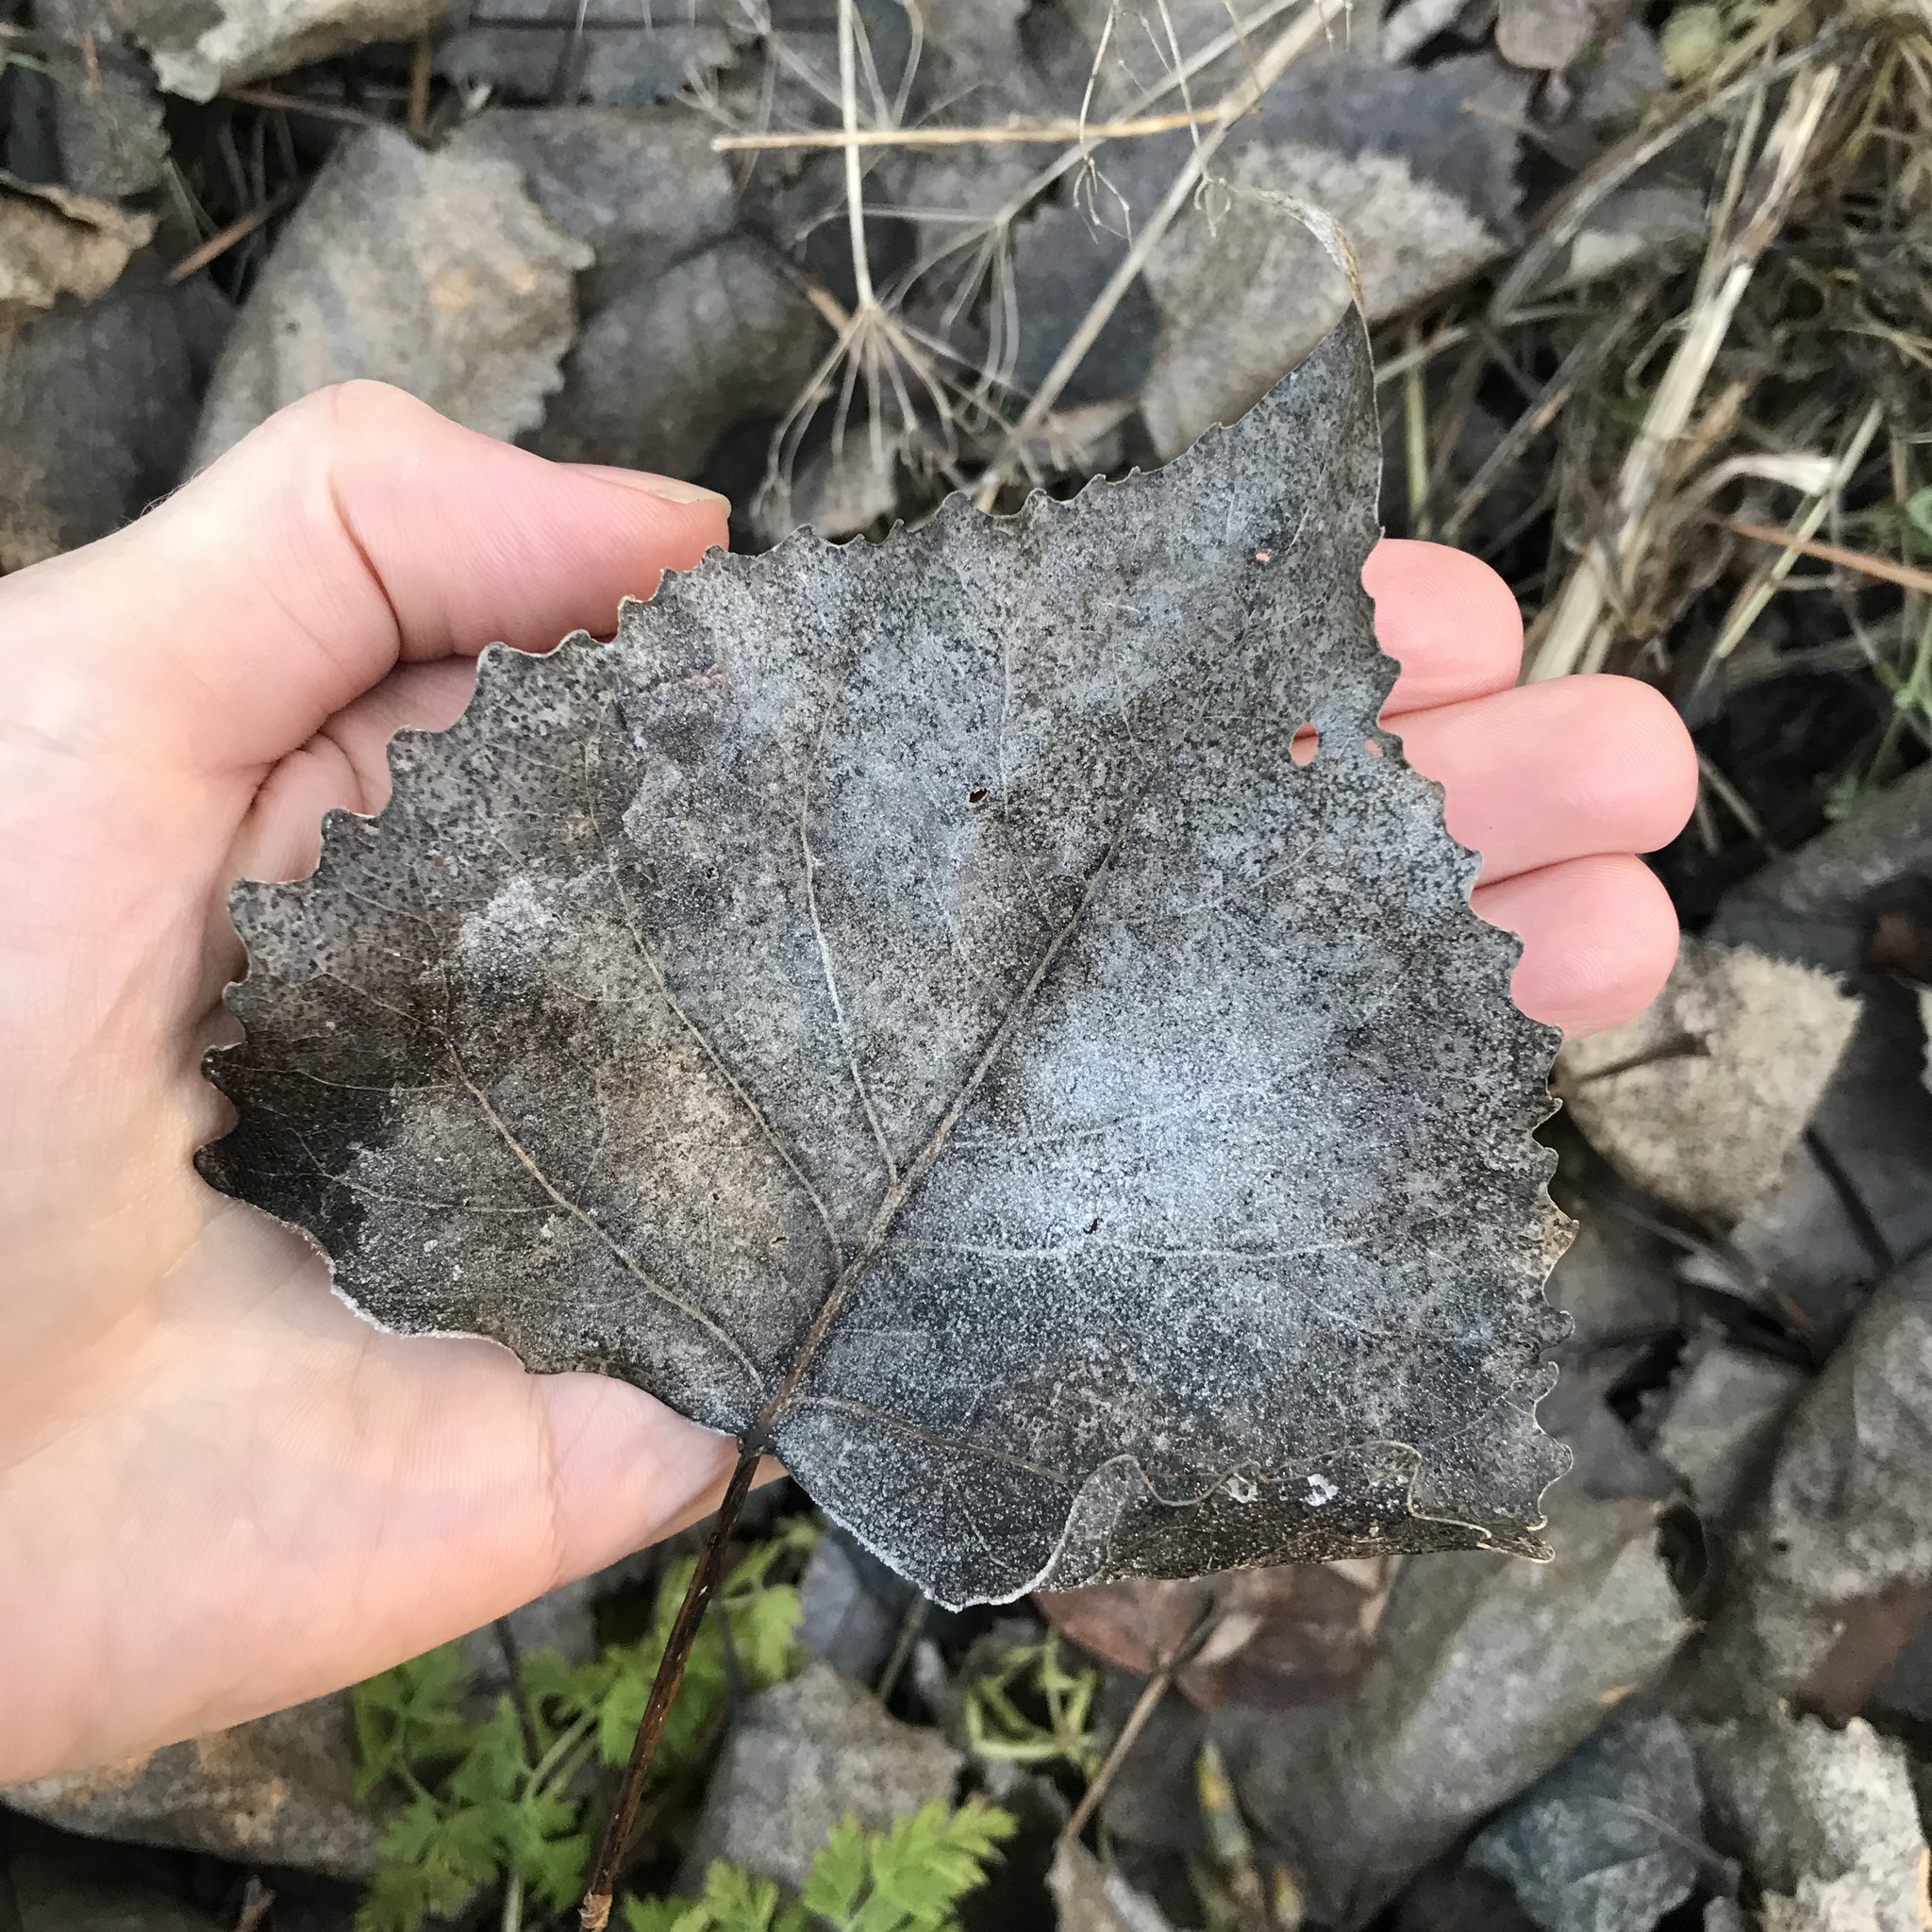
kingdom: Plantae
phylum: Tracheophyta
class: Magnoliopsida
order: Malpighiales
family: Salicaceae
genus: Populus
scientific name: Populus deltoides
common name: Eastern cottonwood
